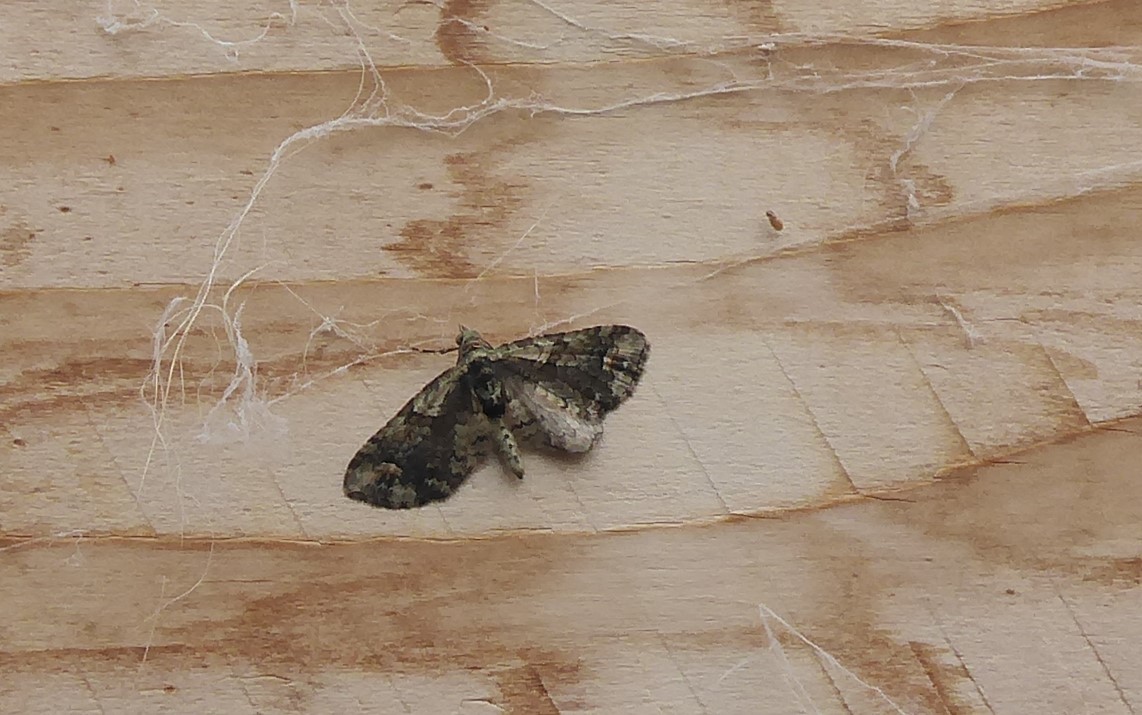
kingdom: Animalia
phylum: Arthropoda
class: Insecta
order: Lepidoptera
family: Geometridae
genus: Idaea
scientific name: Idaea mutanda
